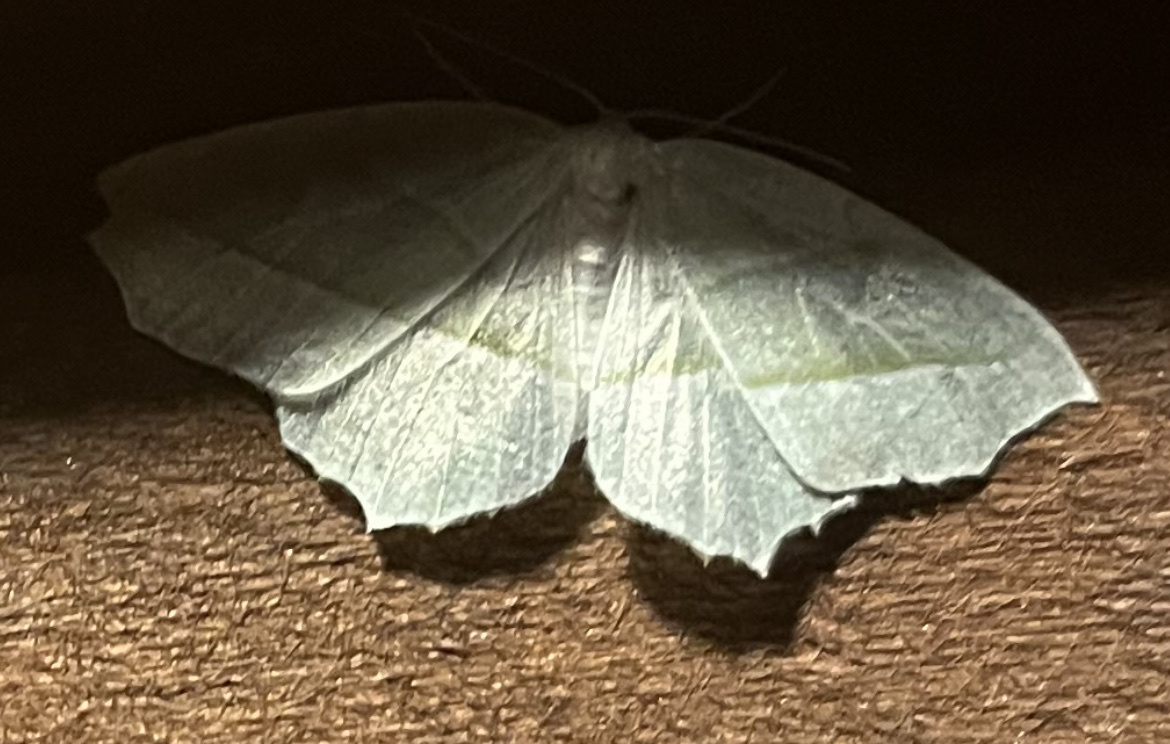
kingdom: Animalia
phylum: Arthropoda
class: Insecta
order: Lepidoptera
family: Geometridae
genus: Campaea
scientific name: Campaea perlata
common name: Fringed looper
